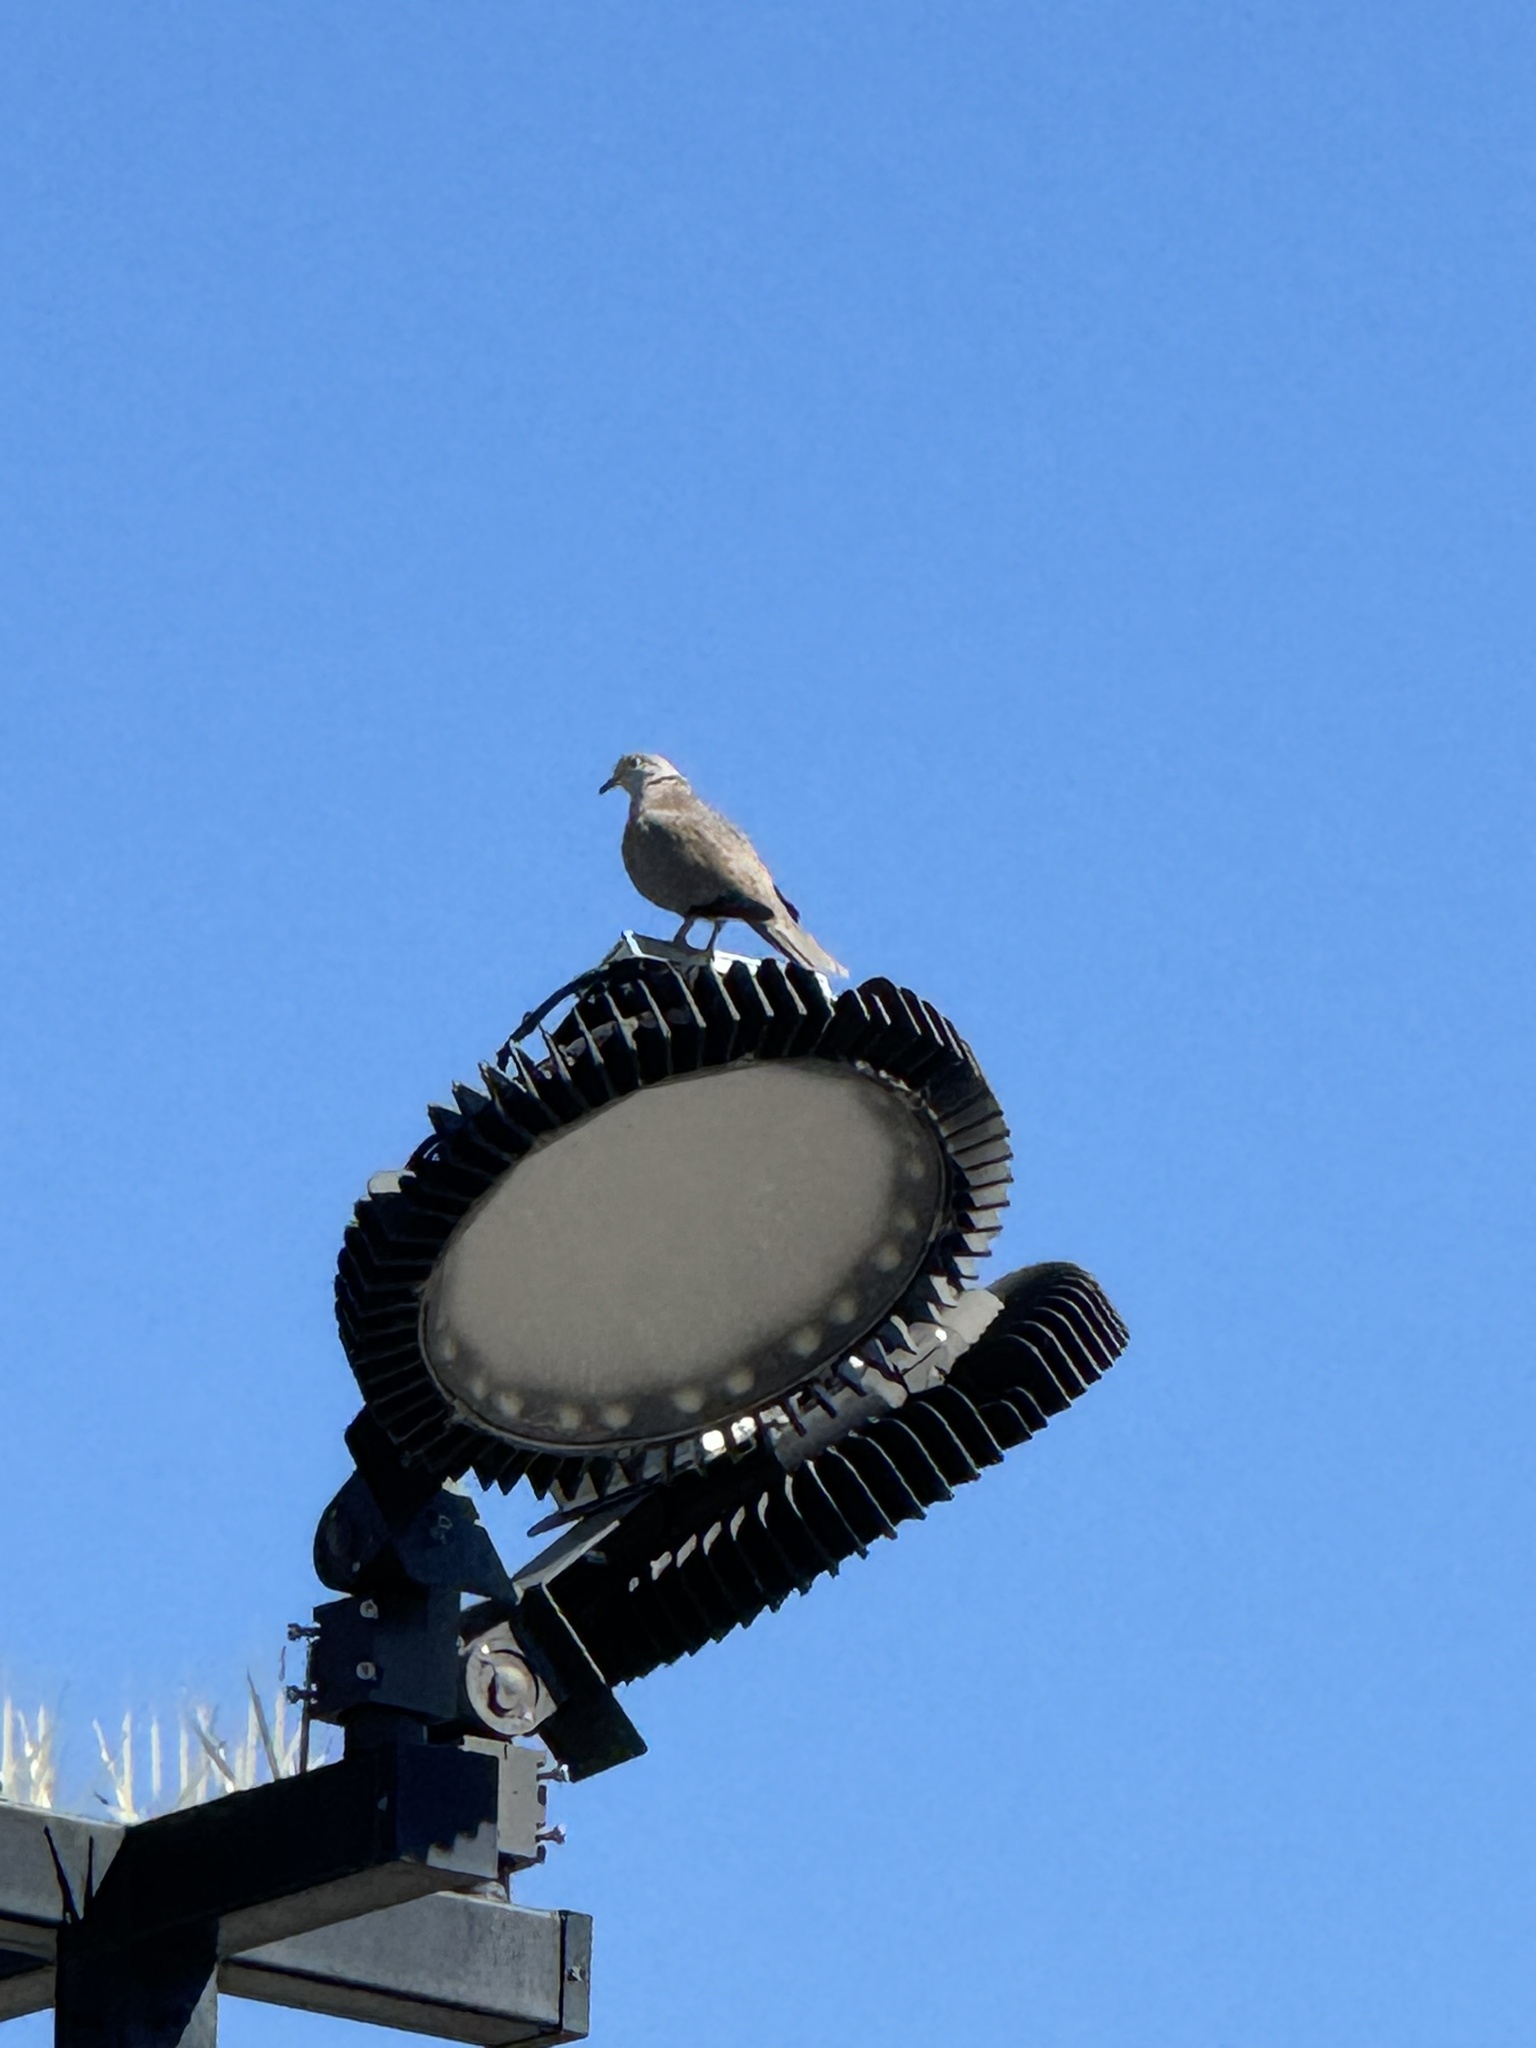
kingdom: Animalia
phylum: Chordata
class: Aves
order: Columbiformes
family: Columbidae
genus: Streptopelia
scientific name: Streptopelia decaocto
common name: Eurasian collared dove
